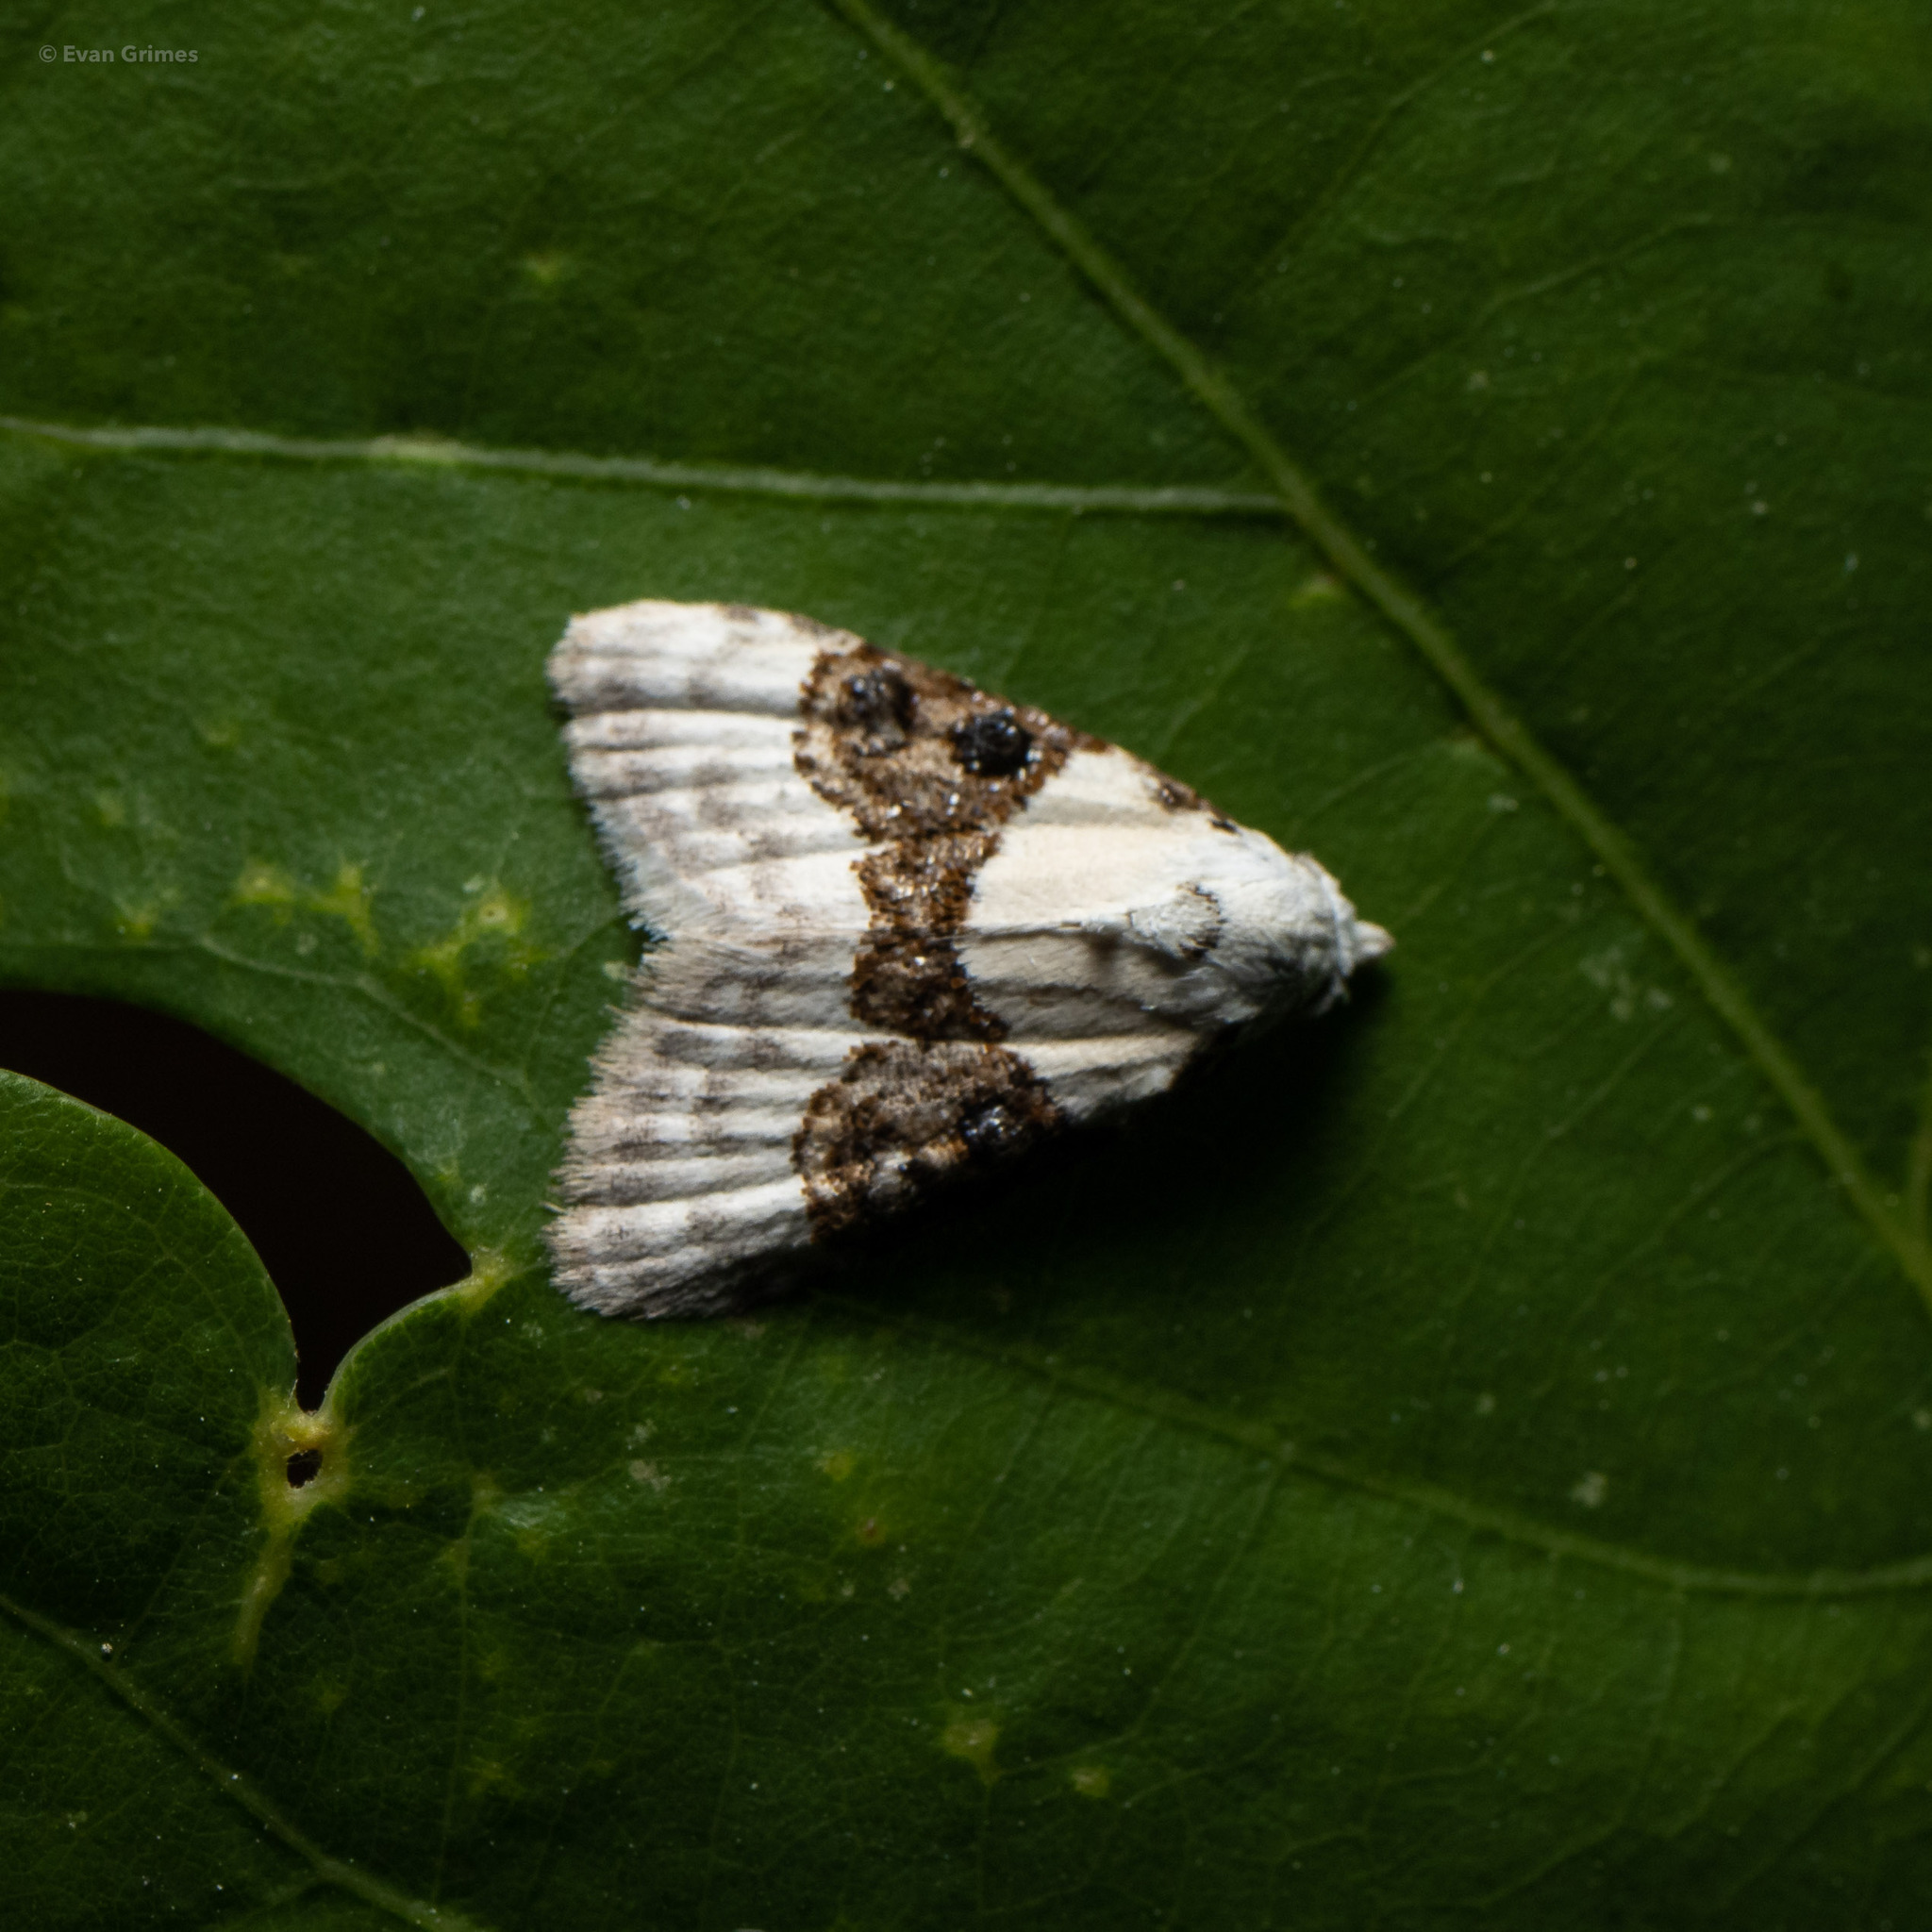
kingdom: Animalia
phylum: Arthropoda
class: Insecta
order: Lepidoptera
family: Nolidae
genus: Nola
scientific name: Nola pustulata
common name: Sharp-blotched nola moth
